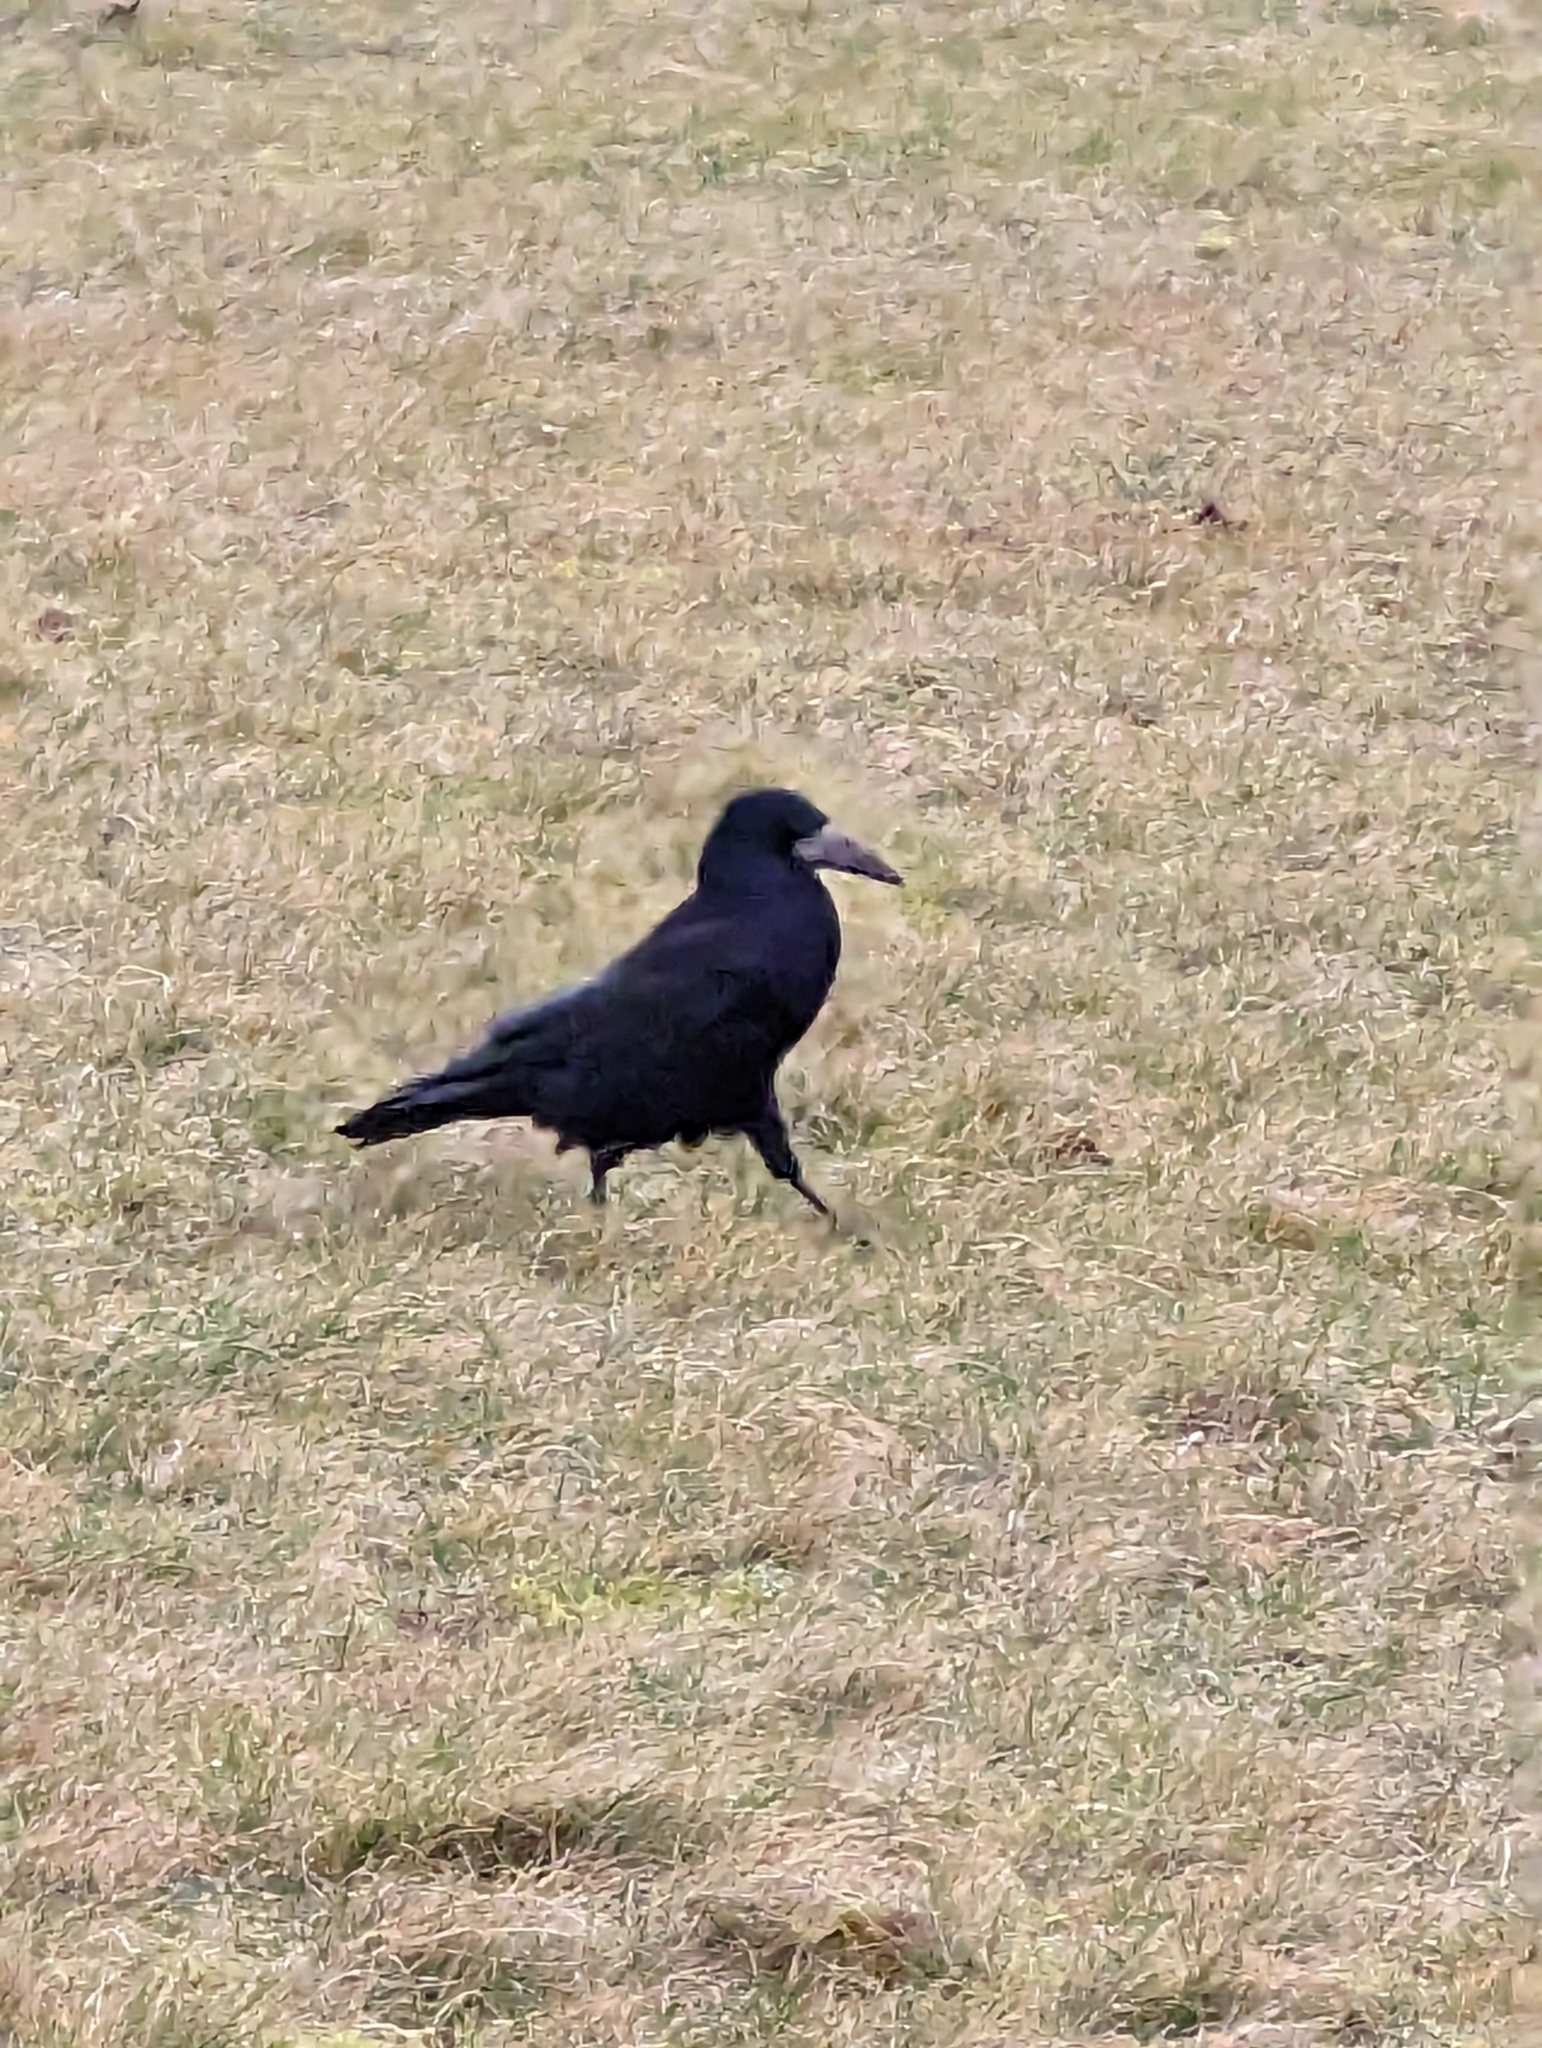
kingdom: Animalia
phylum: Chordata
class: Aves
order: Passeriformes
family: Corvidae
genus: Corvus
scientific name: Corvus frugilegus
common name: Rook
